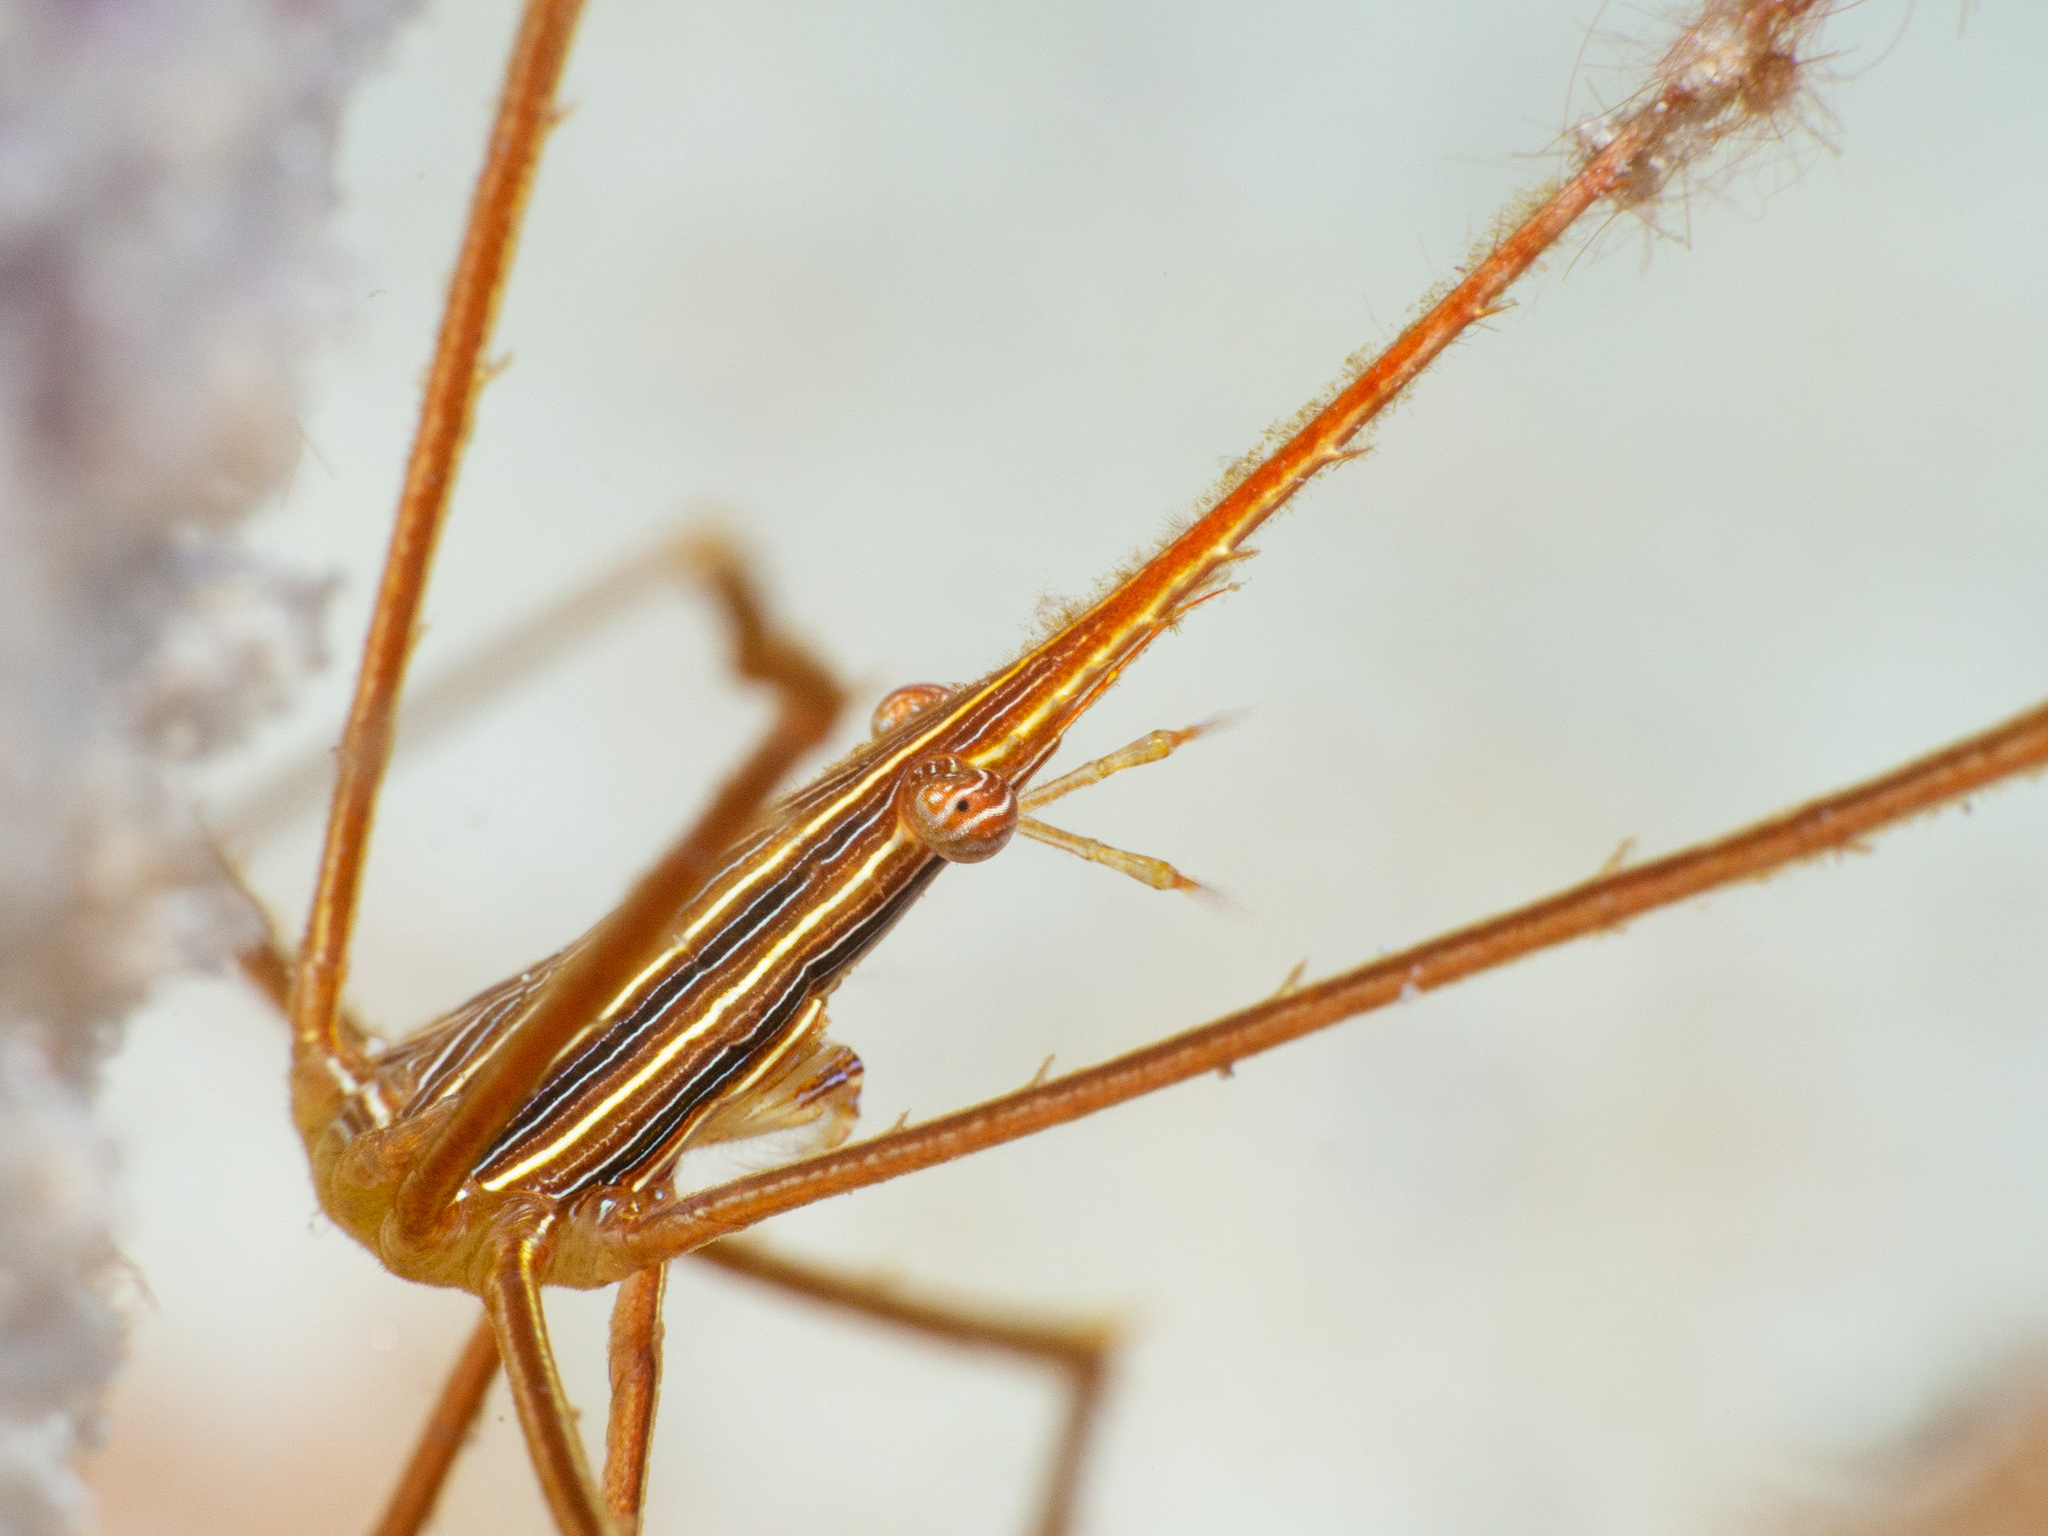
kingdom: Animalia
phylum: Arthropoda
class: Malacostraca
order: Decapoda
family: Inachoididae
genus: Stenorhynchus
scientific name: Stenorhynchus seticornis
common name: Arrow crab
